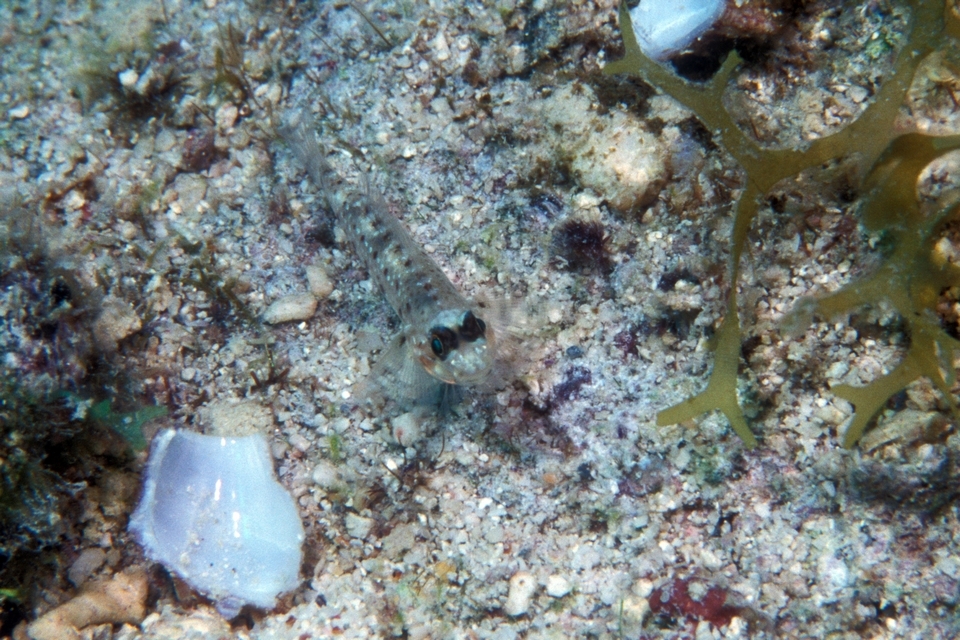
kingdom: Animalia
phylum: Chordata
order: Perciformes
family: Gobiidae
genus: Coryphopterus
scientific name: Coryphopterus dicrus
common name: Colon goby
